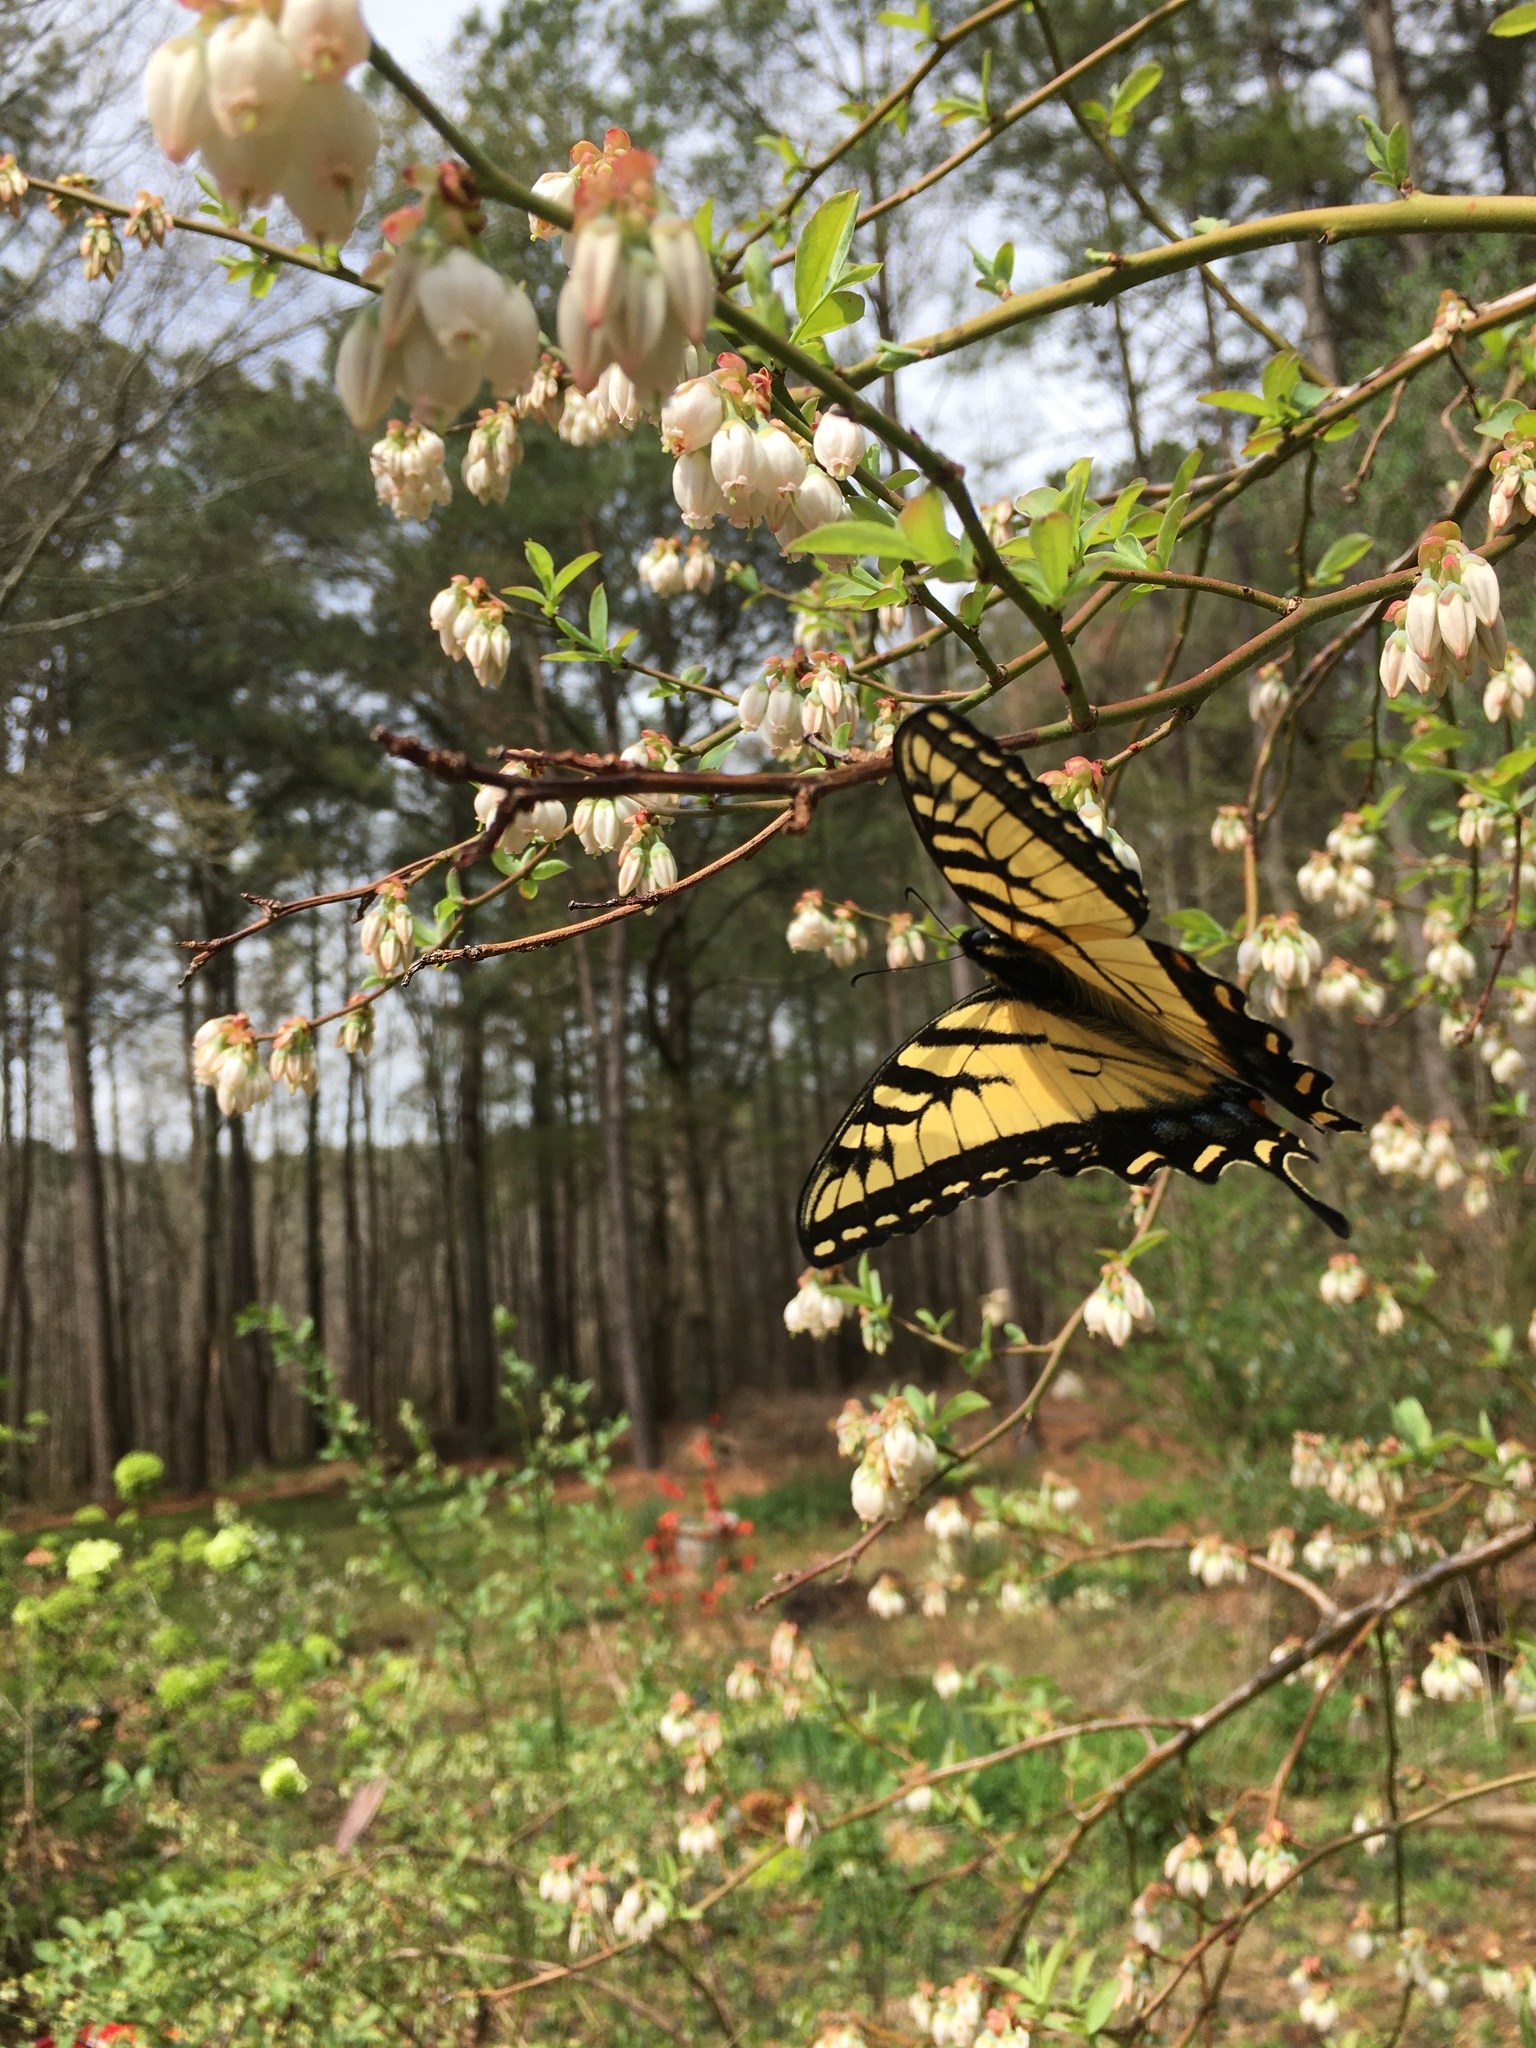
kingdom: Animalia
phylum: Arthropoda
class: Insecta
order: Lepidoptera
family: Papilionidae
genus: Papilio
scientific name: Papilio glaucus
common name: Tiger swallowtail
